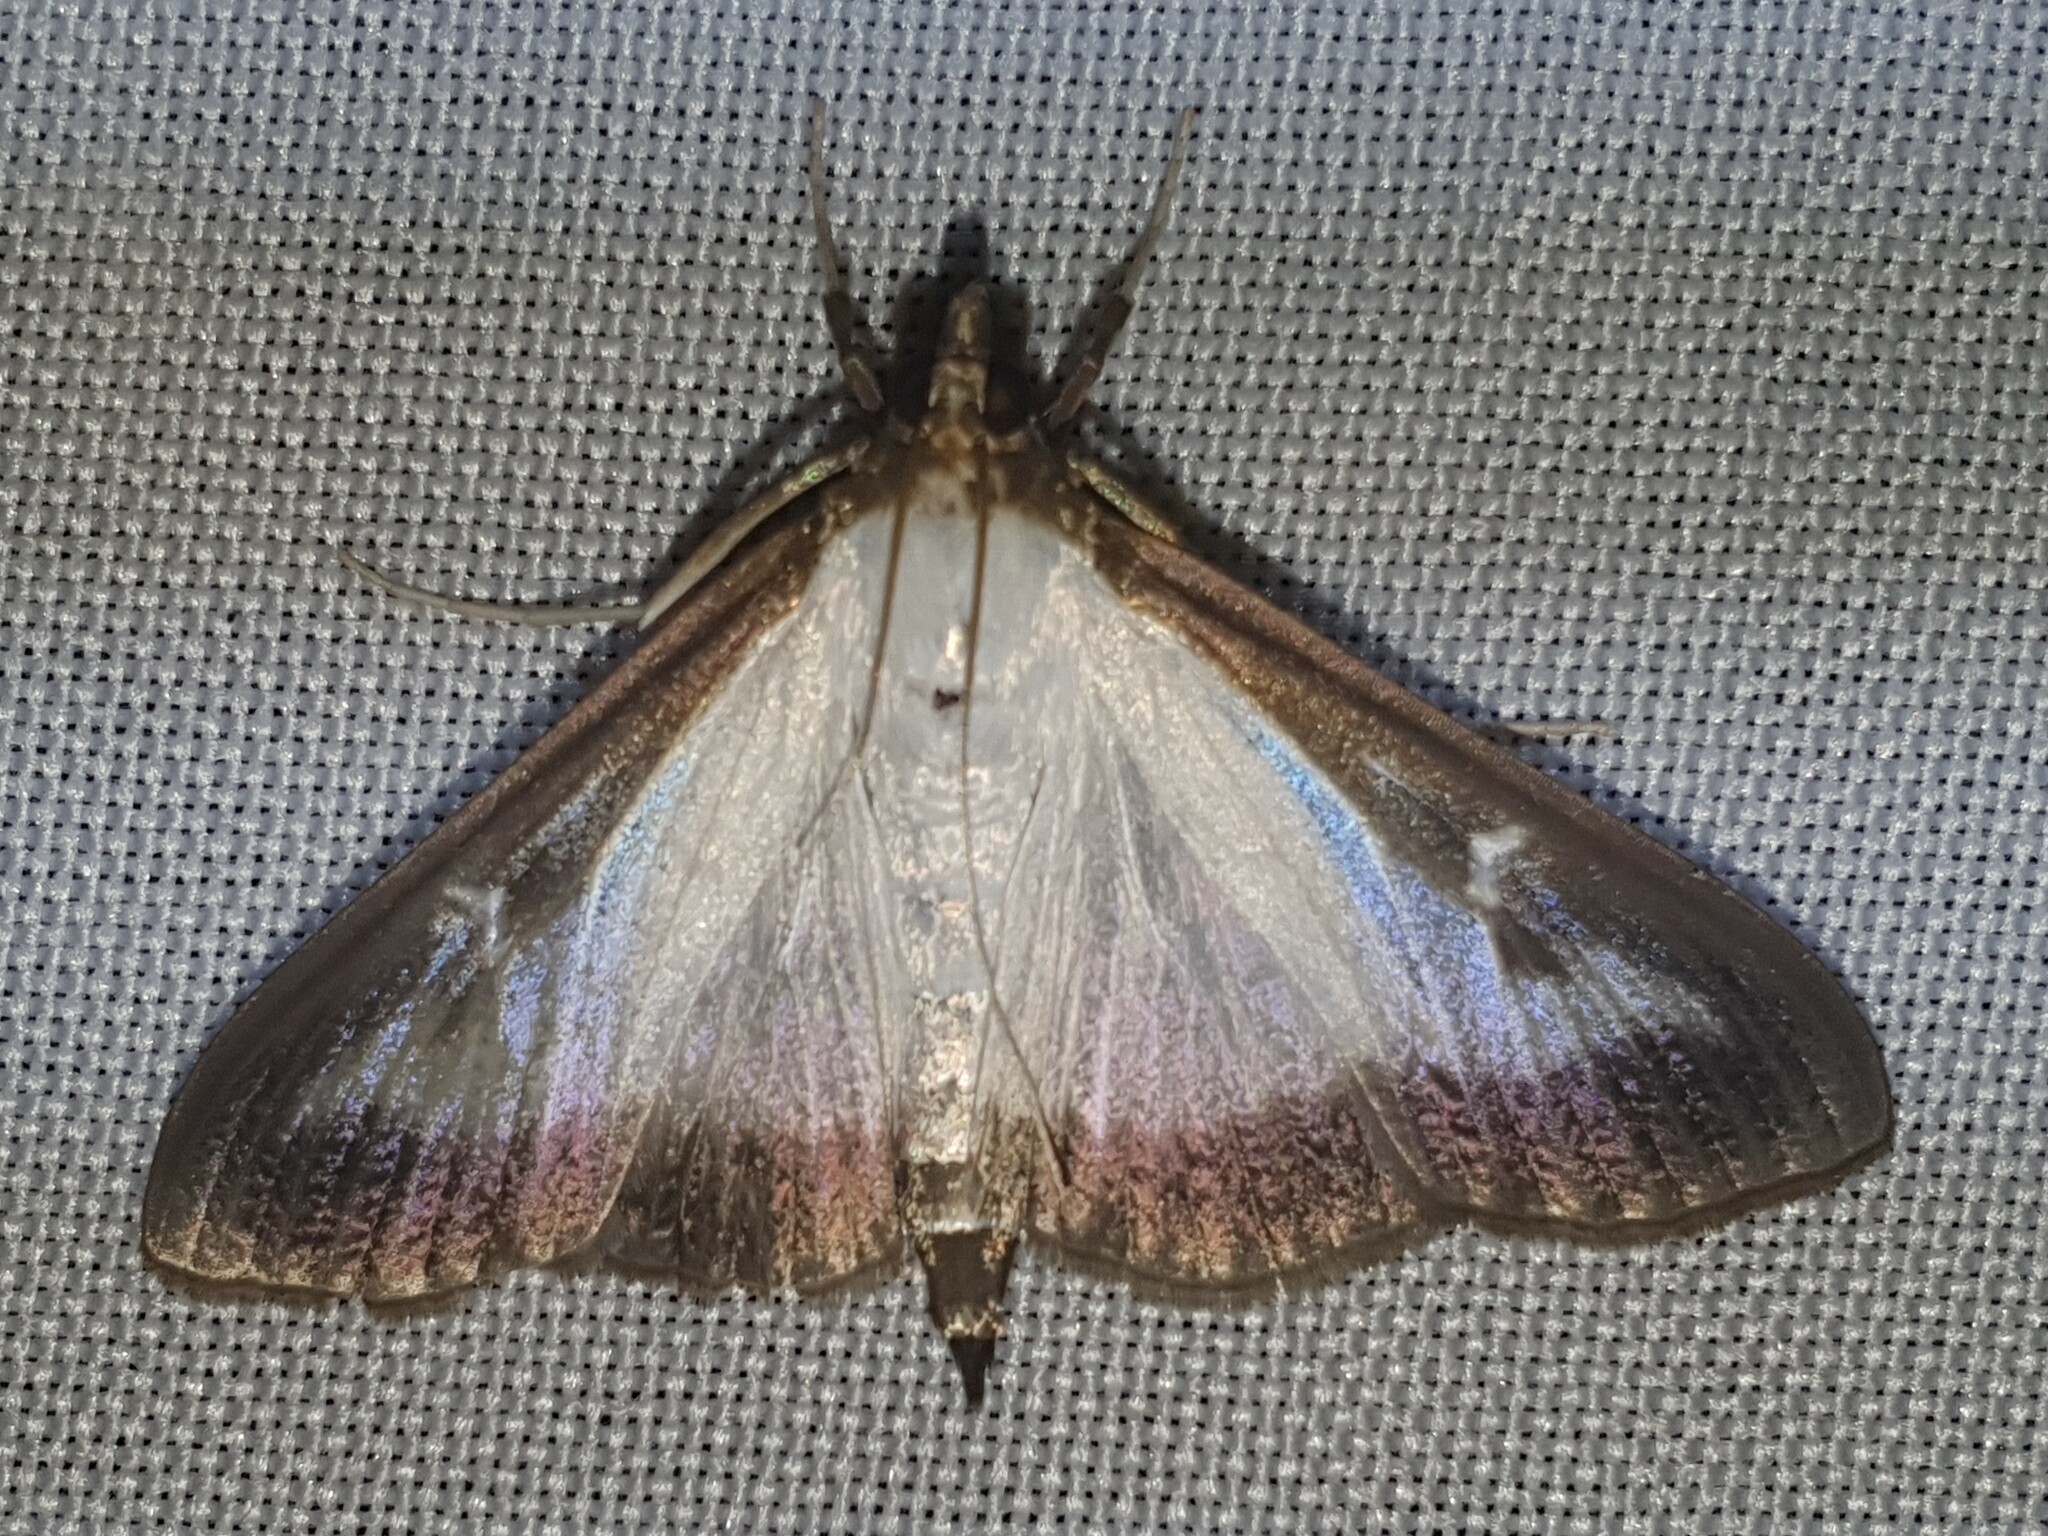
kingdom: Animalia
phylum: Arthropoda
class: Insecta
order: Lepidoptera
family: Crambidae
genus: Cydalima
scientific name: Cydalima perspectalis
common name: Box tree moth
